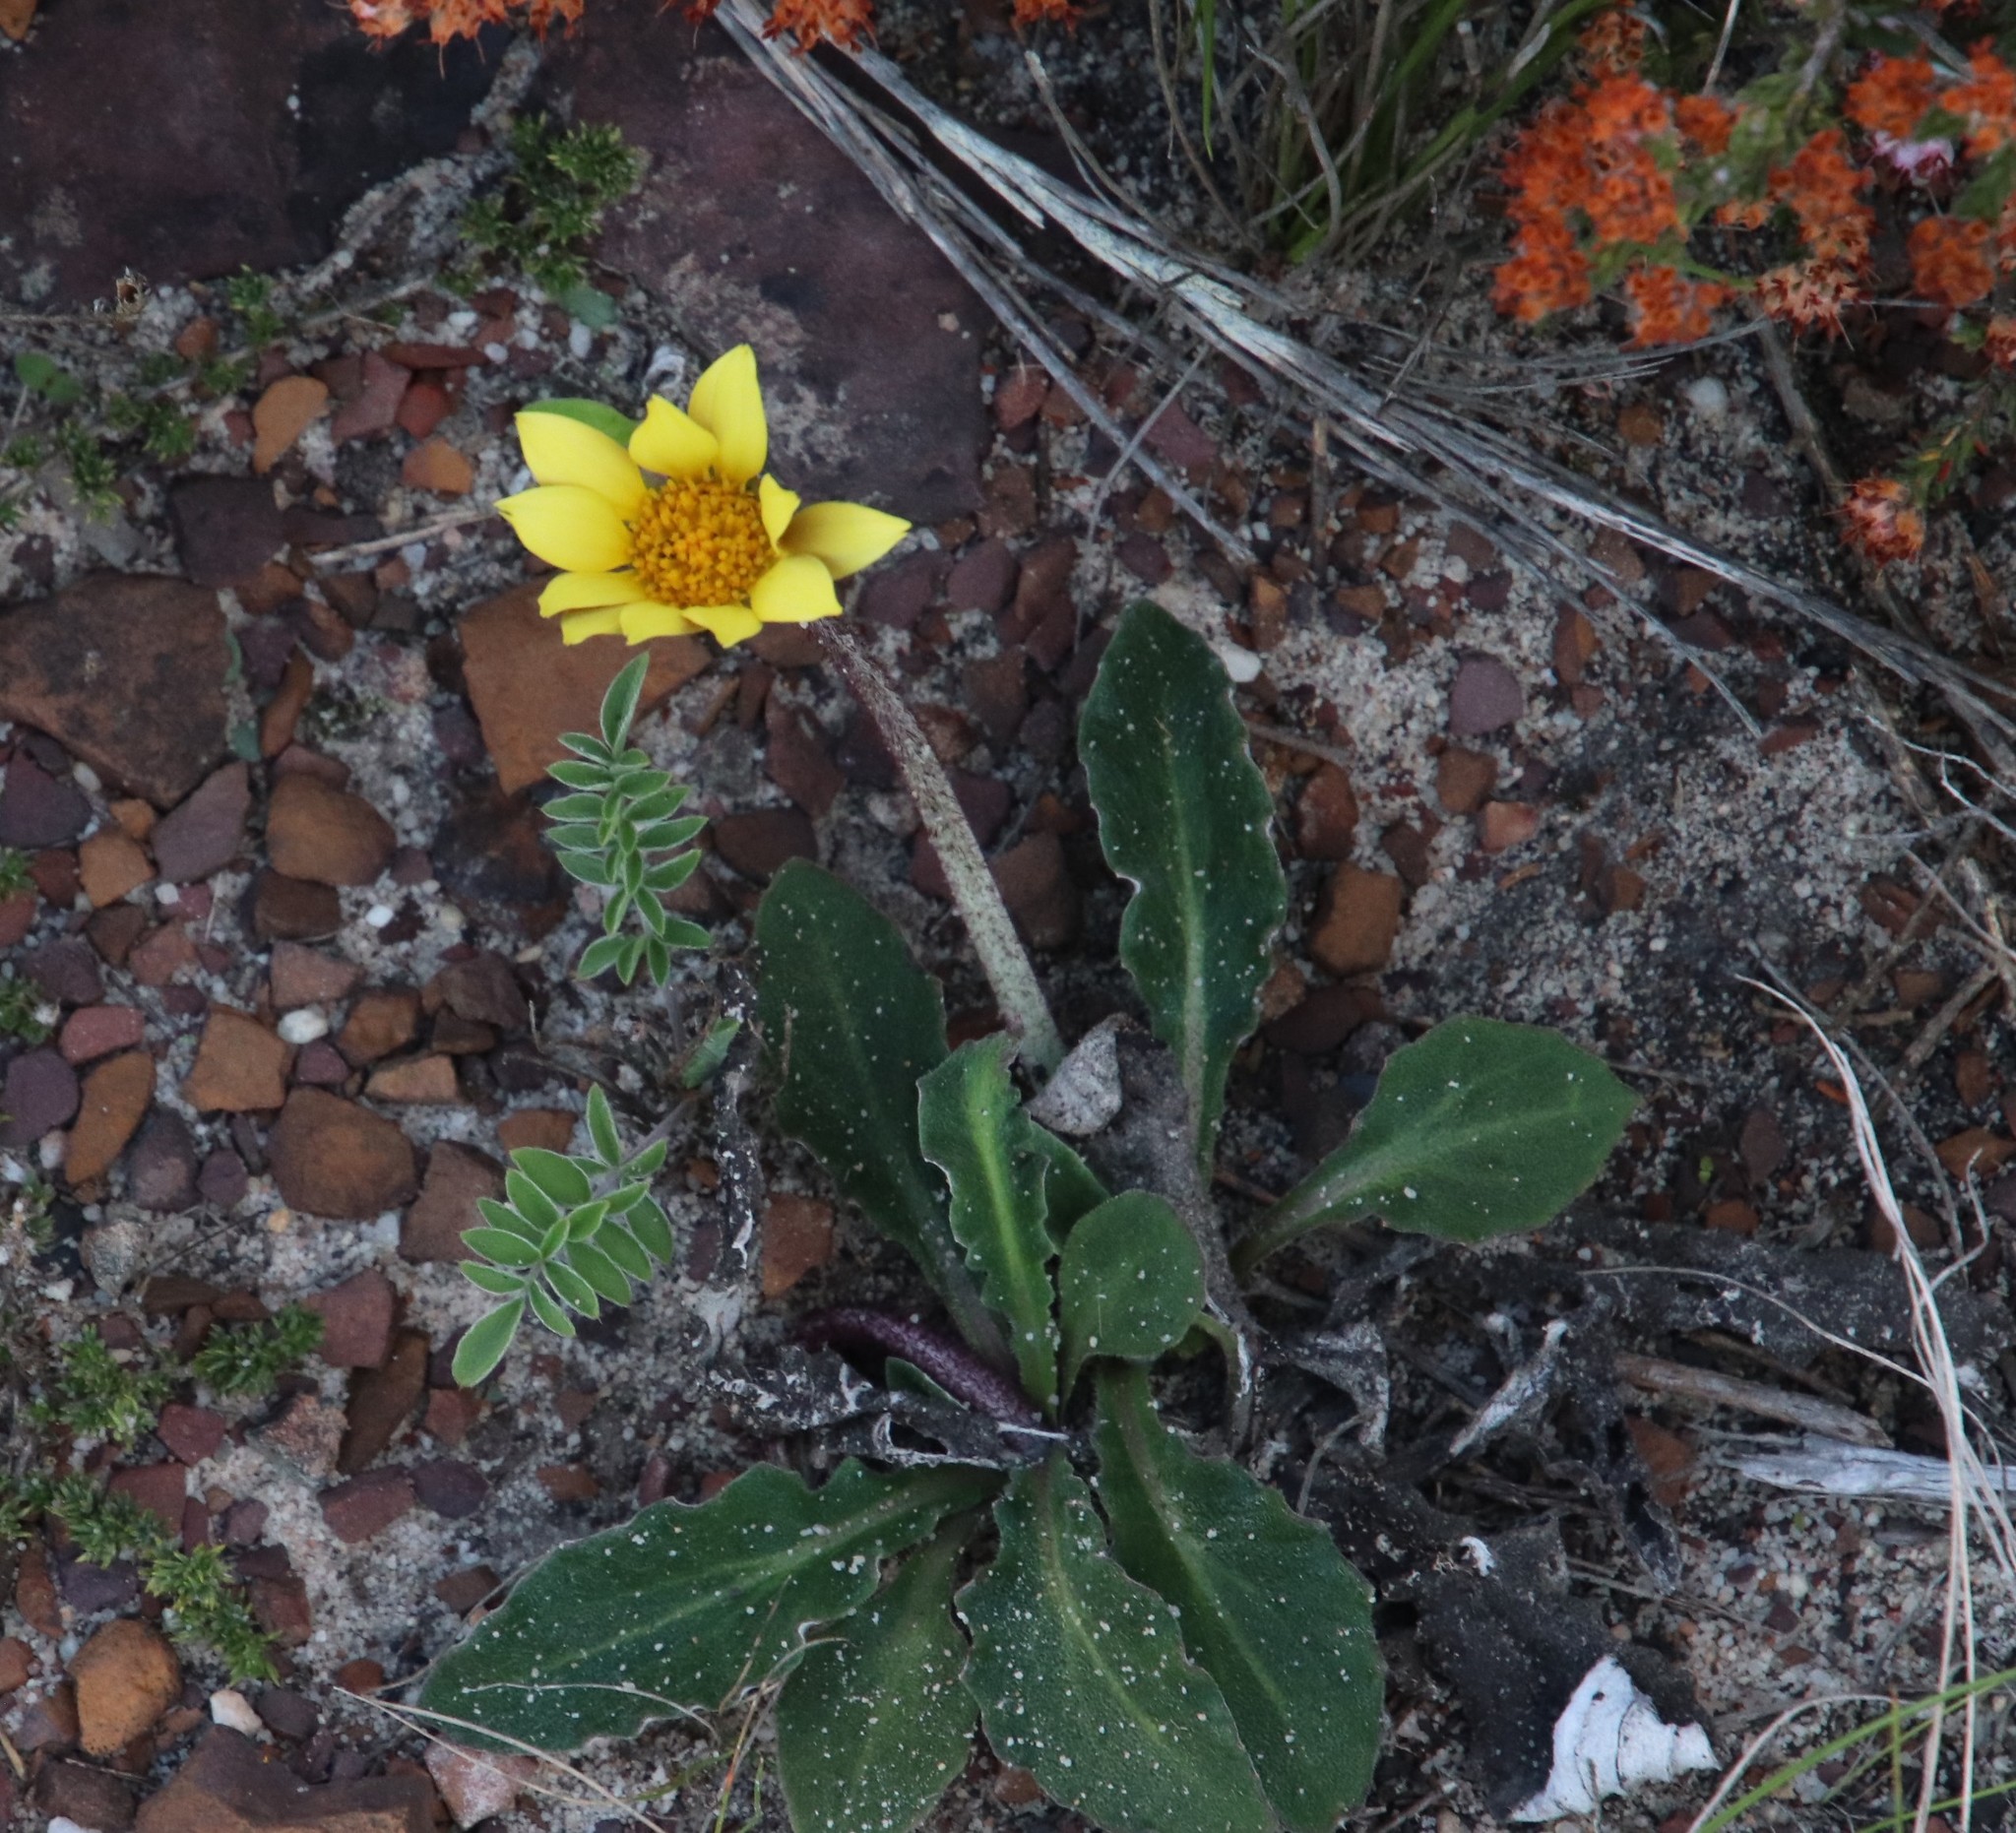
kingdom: Plantae
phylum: Tracheophyta
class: Magnoliopsida
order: Asterales
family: Asteraceae
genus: Haplocarpha
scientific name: Haplocarpha lanata
